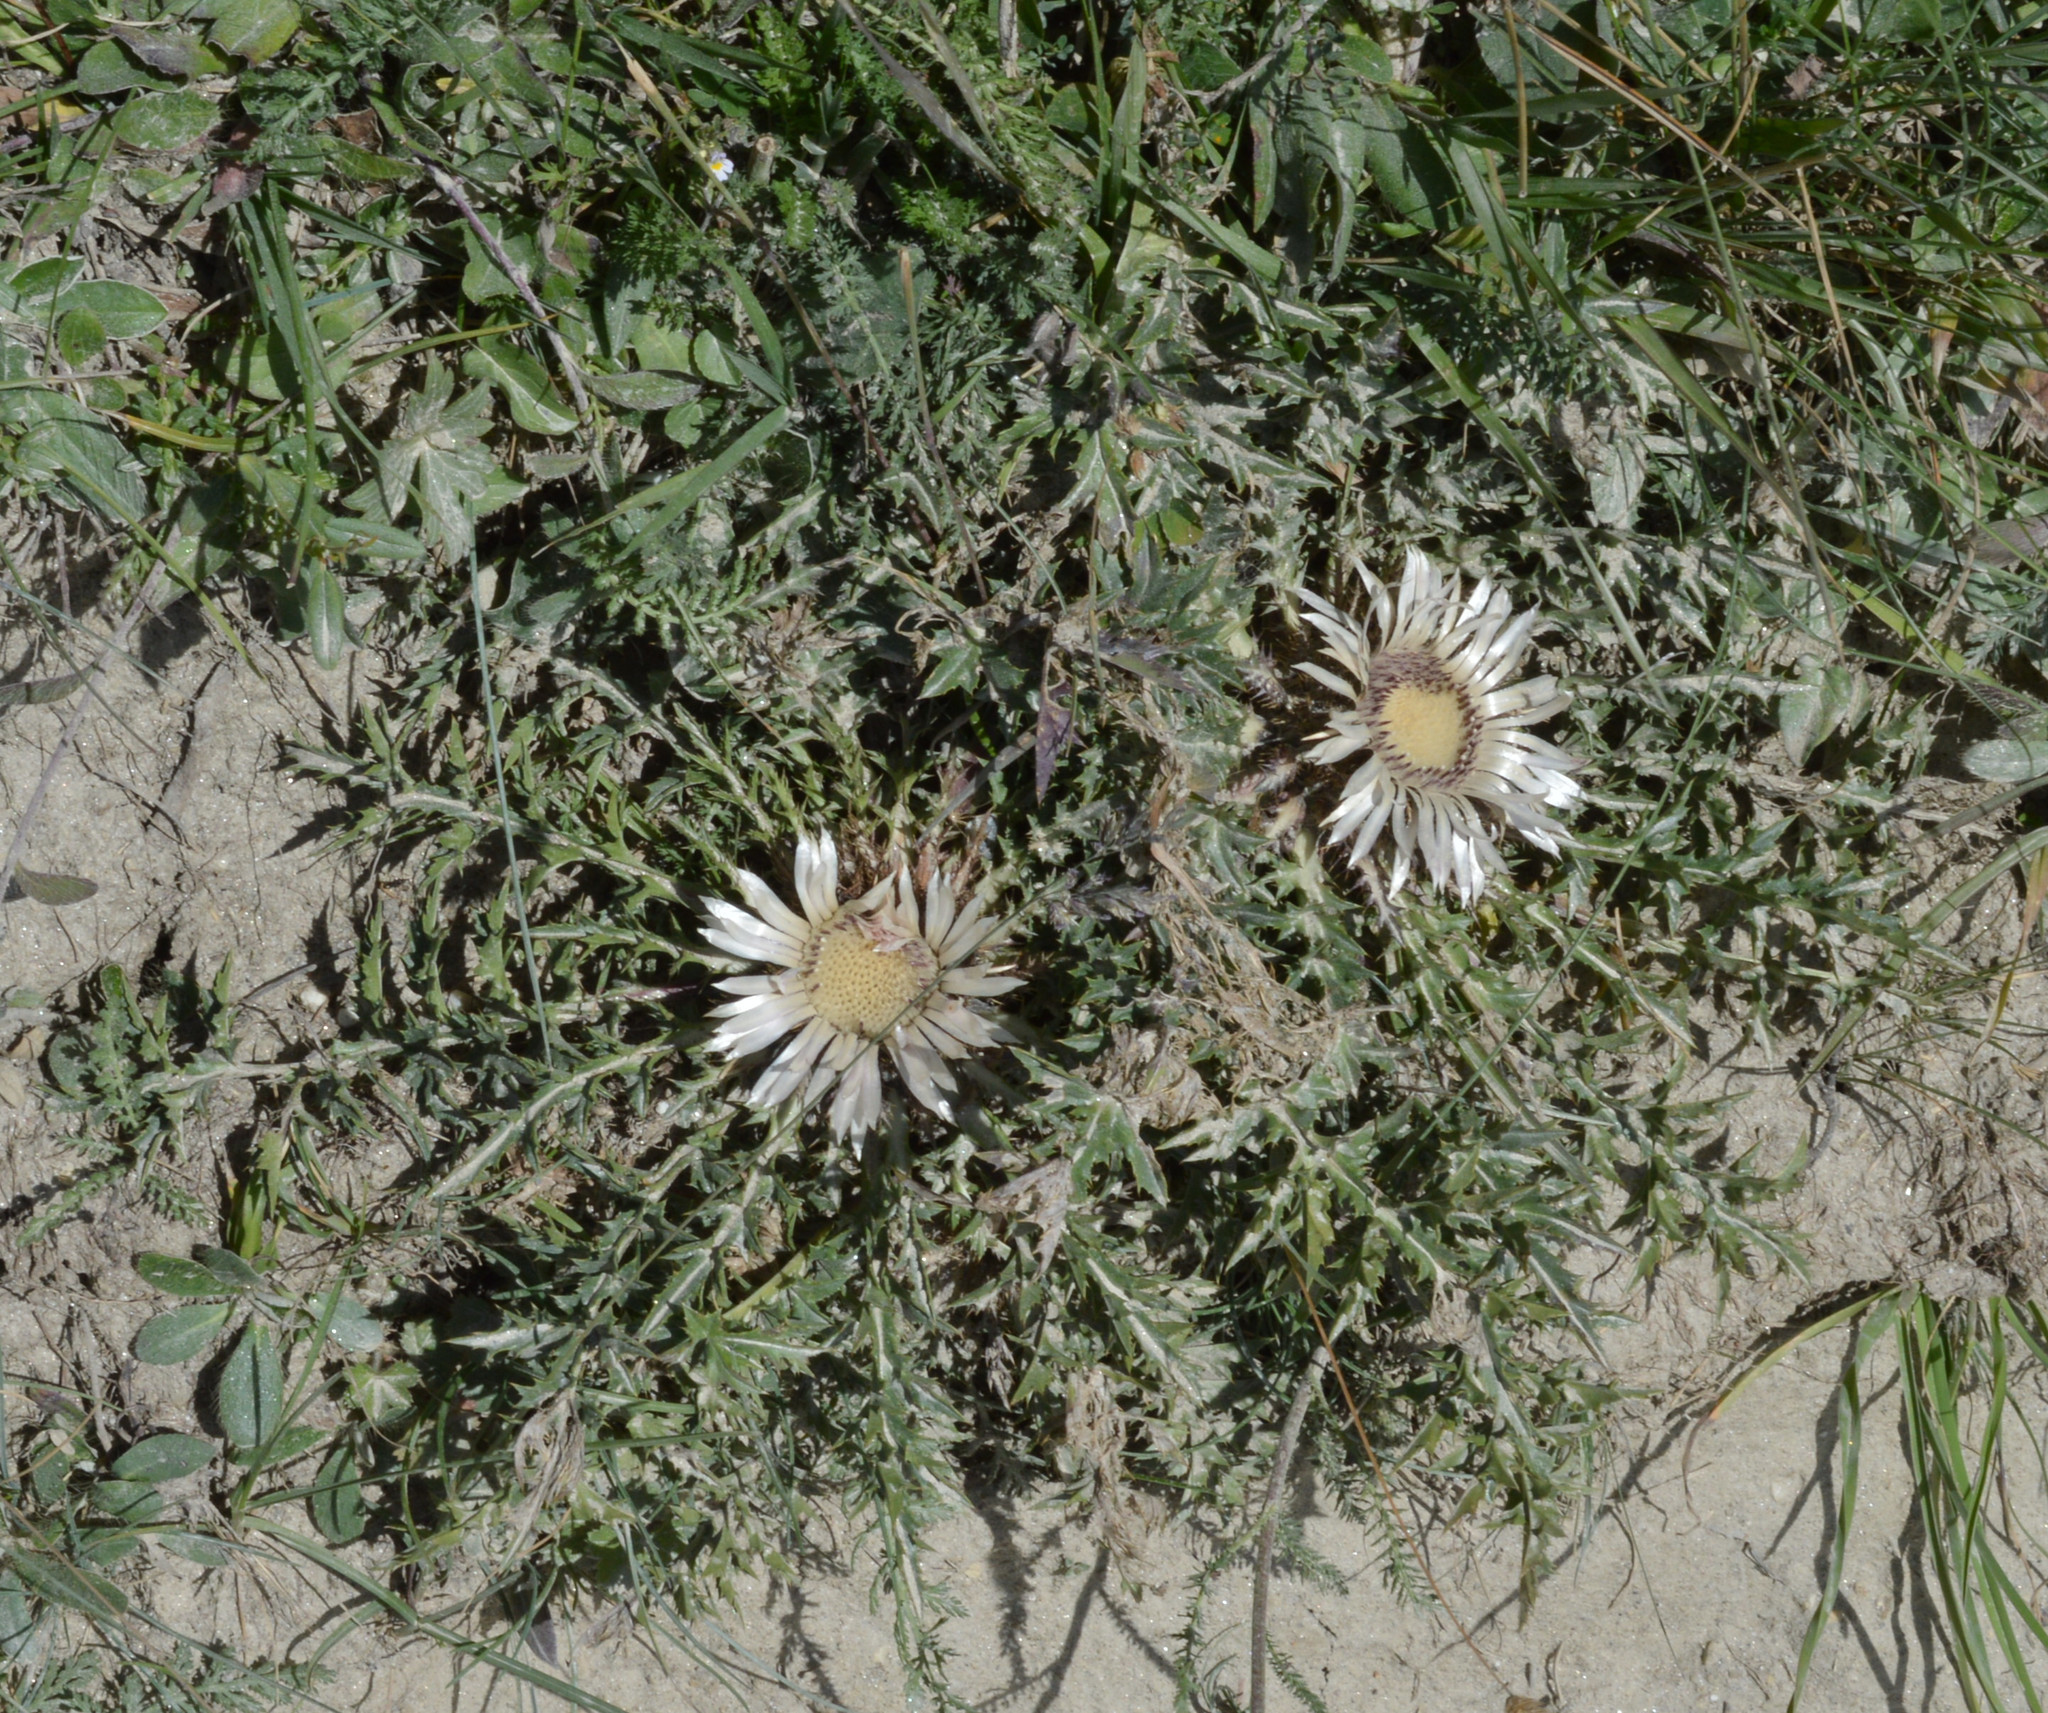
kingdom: Plantae
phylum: Tracheophyta
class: Magnoliopsida
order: Asterales
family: Asteraceae
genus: Carlina
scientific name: Carlina acaulis
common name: Stemless carline thistle
